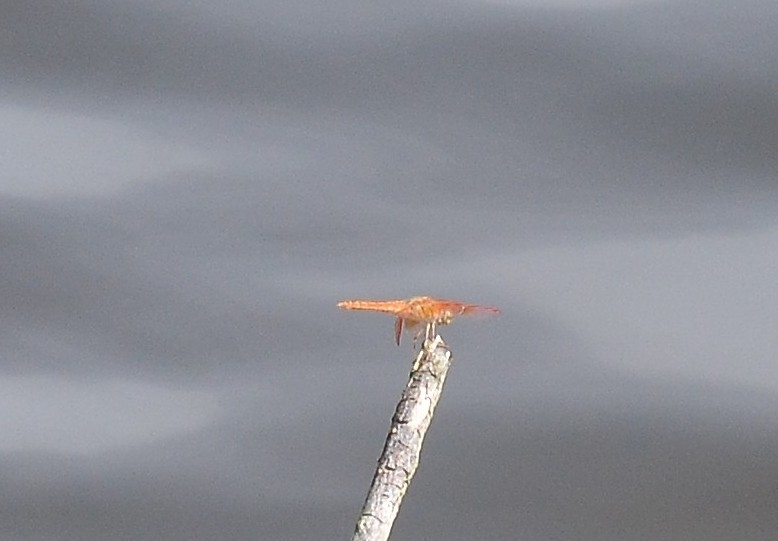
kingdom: Animalia
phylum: Arthropoda
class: Insecta
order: Odonata
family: Libellulidae
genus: Brachythemis
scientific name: Brachythemis contaminata
